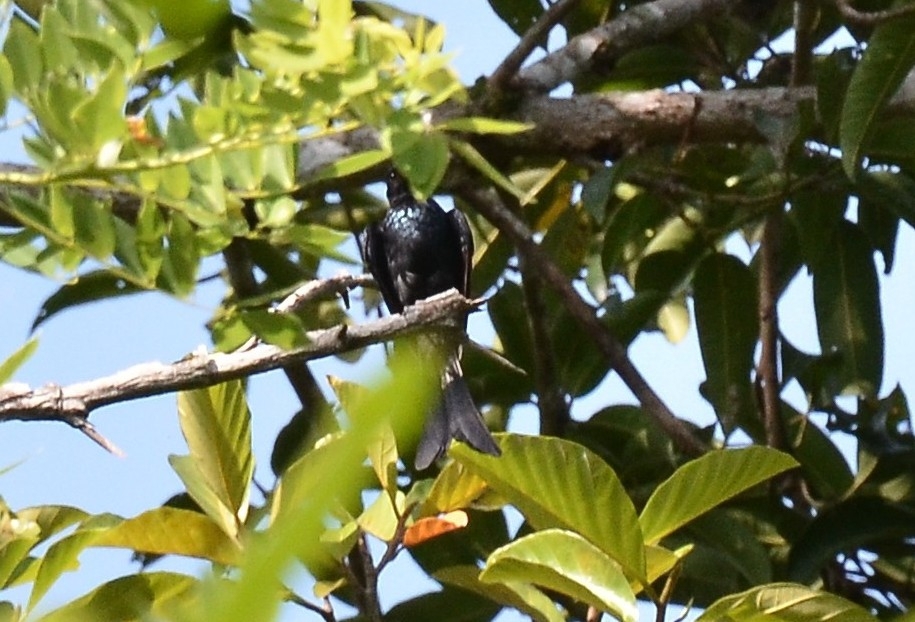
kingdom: Animalia
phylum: Chordata
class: Aves
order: Passeriformes
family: Dicruridae
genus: Dicrurus
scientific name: Dicrurus aeneus
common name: Bronzed drongo
